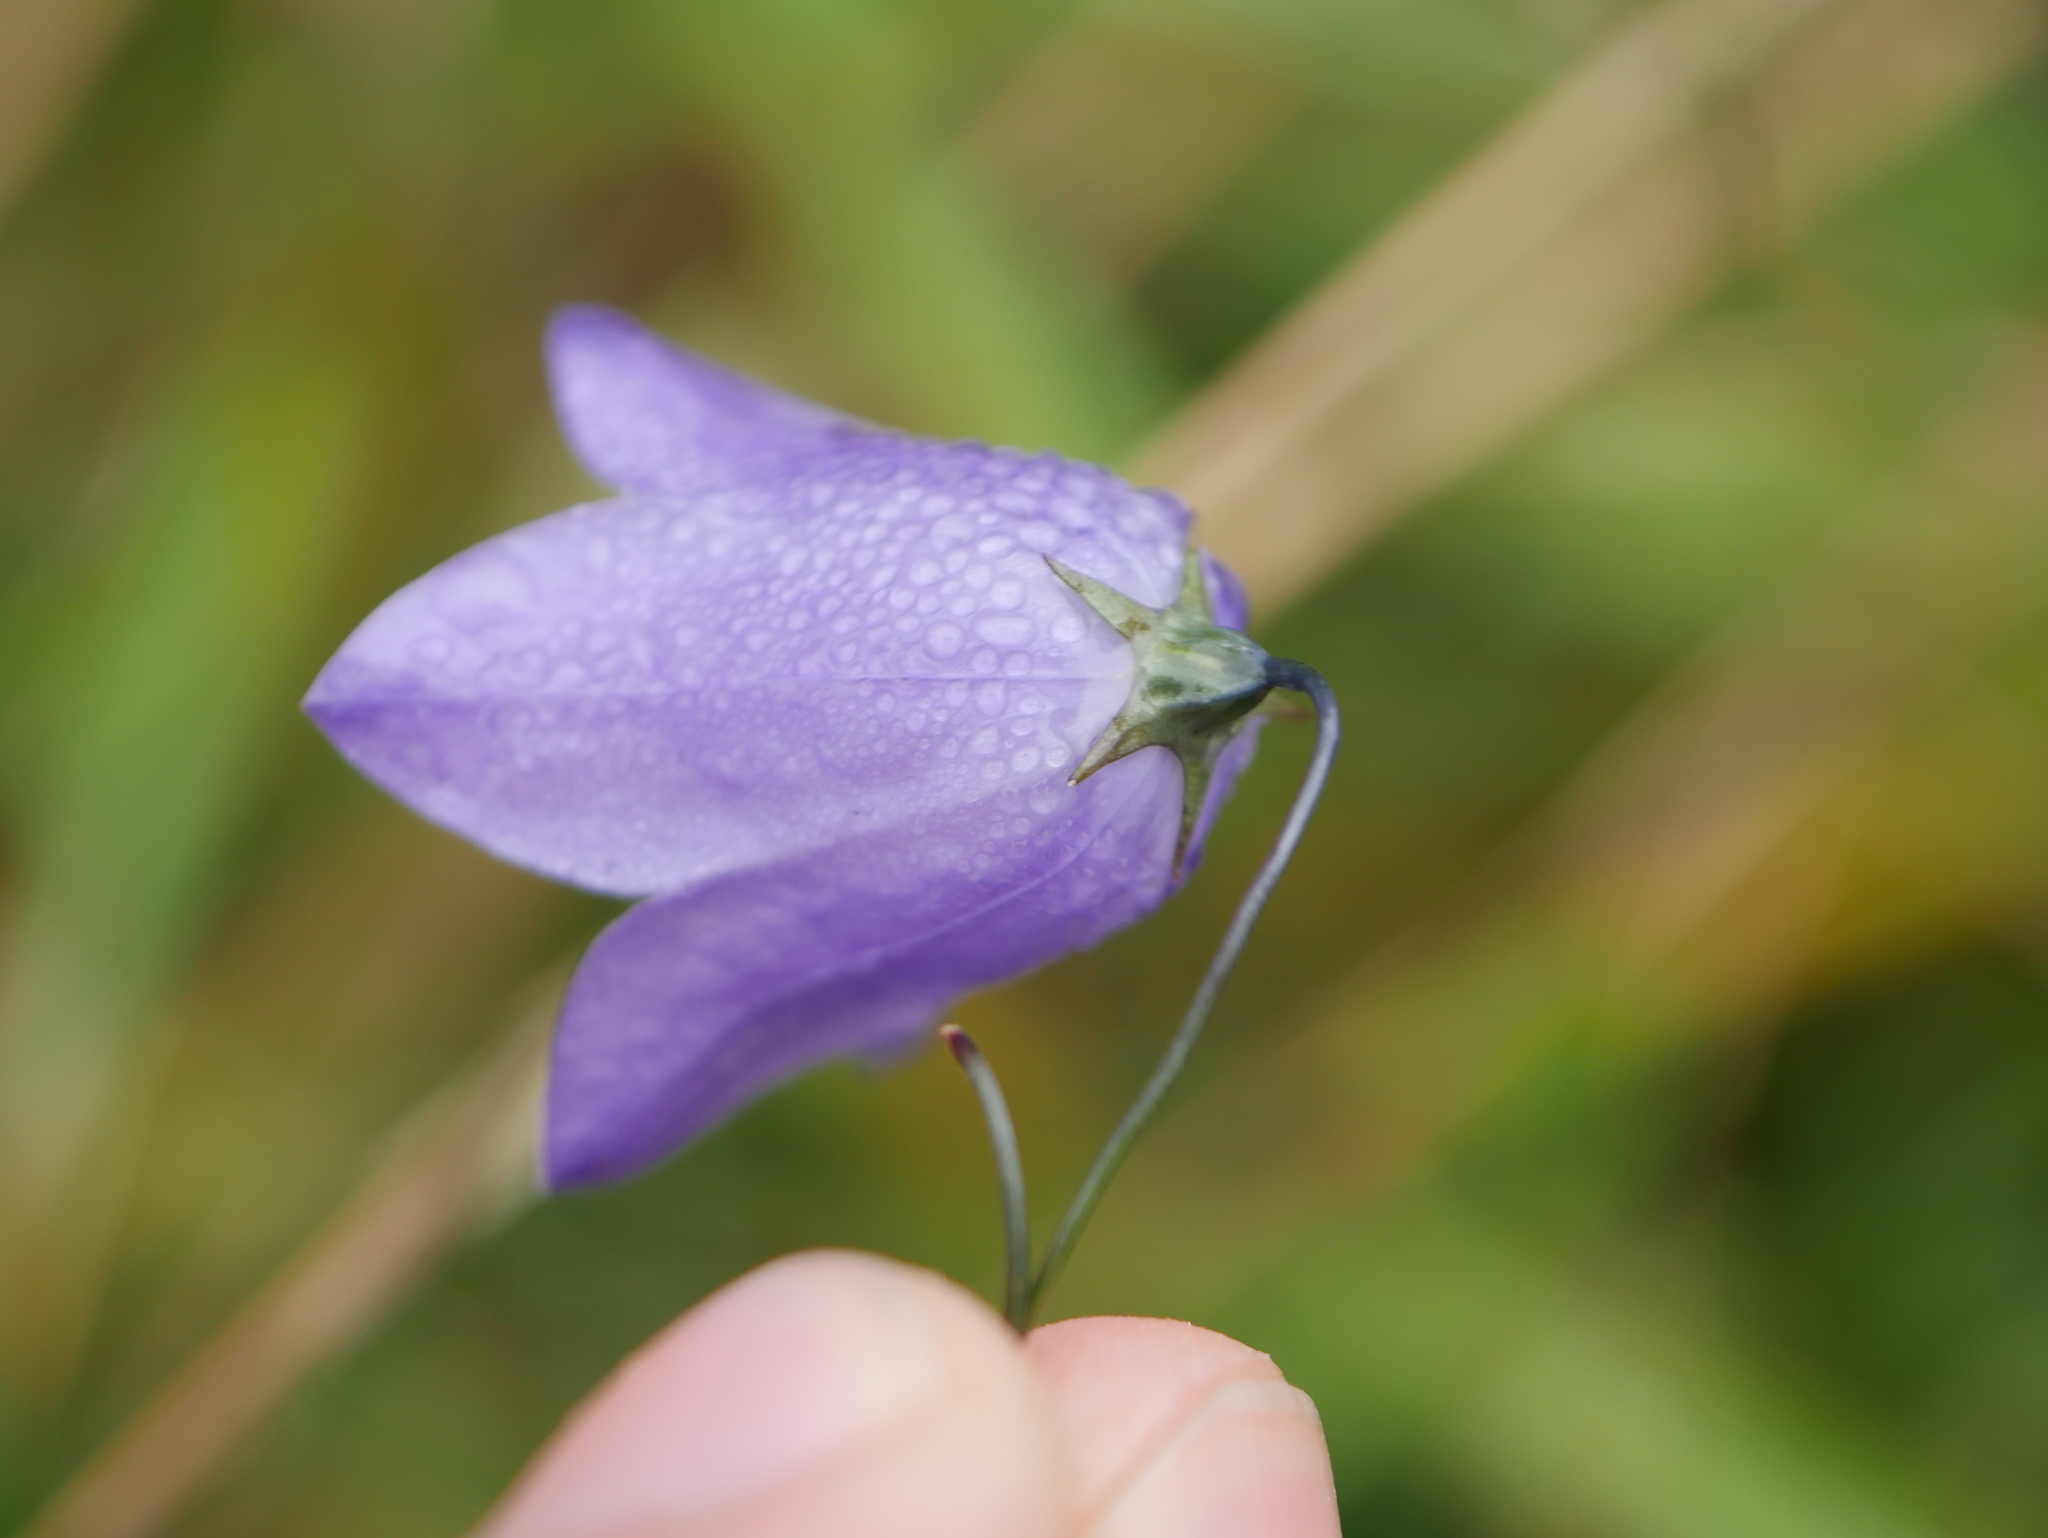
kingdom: Plantae
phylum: Tracheophyta
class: Magnoliopsida
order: Asterales
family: Campanulaceae
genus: Campanula
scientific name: Campanula rotundifolia
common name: Harebell
